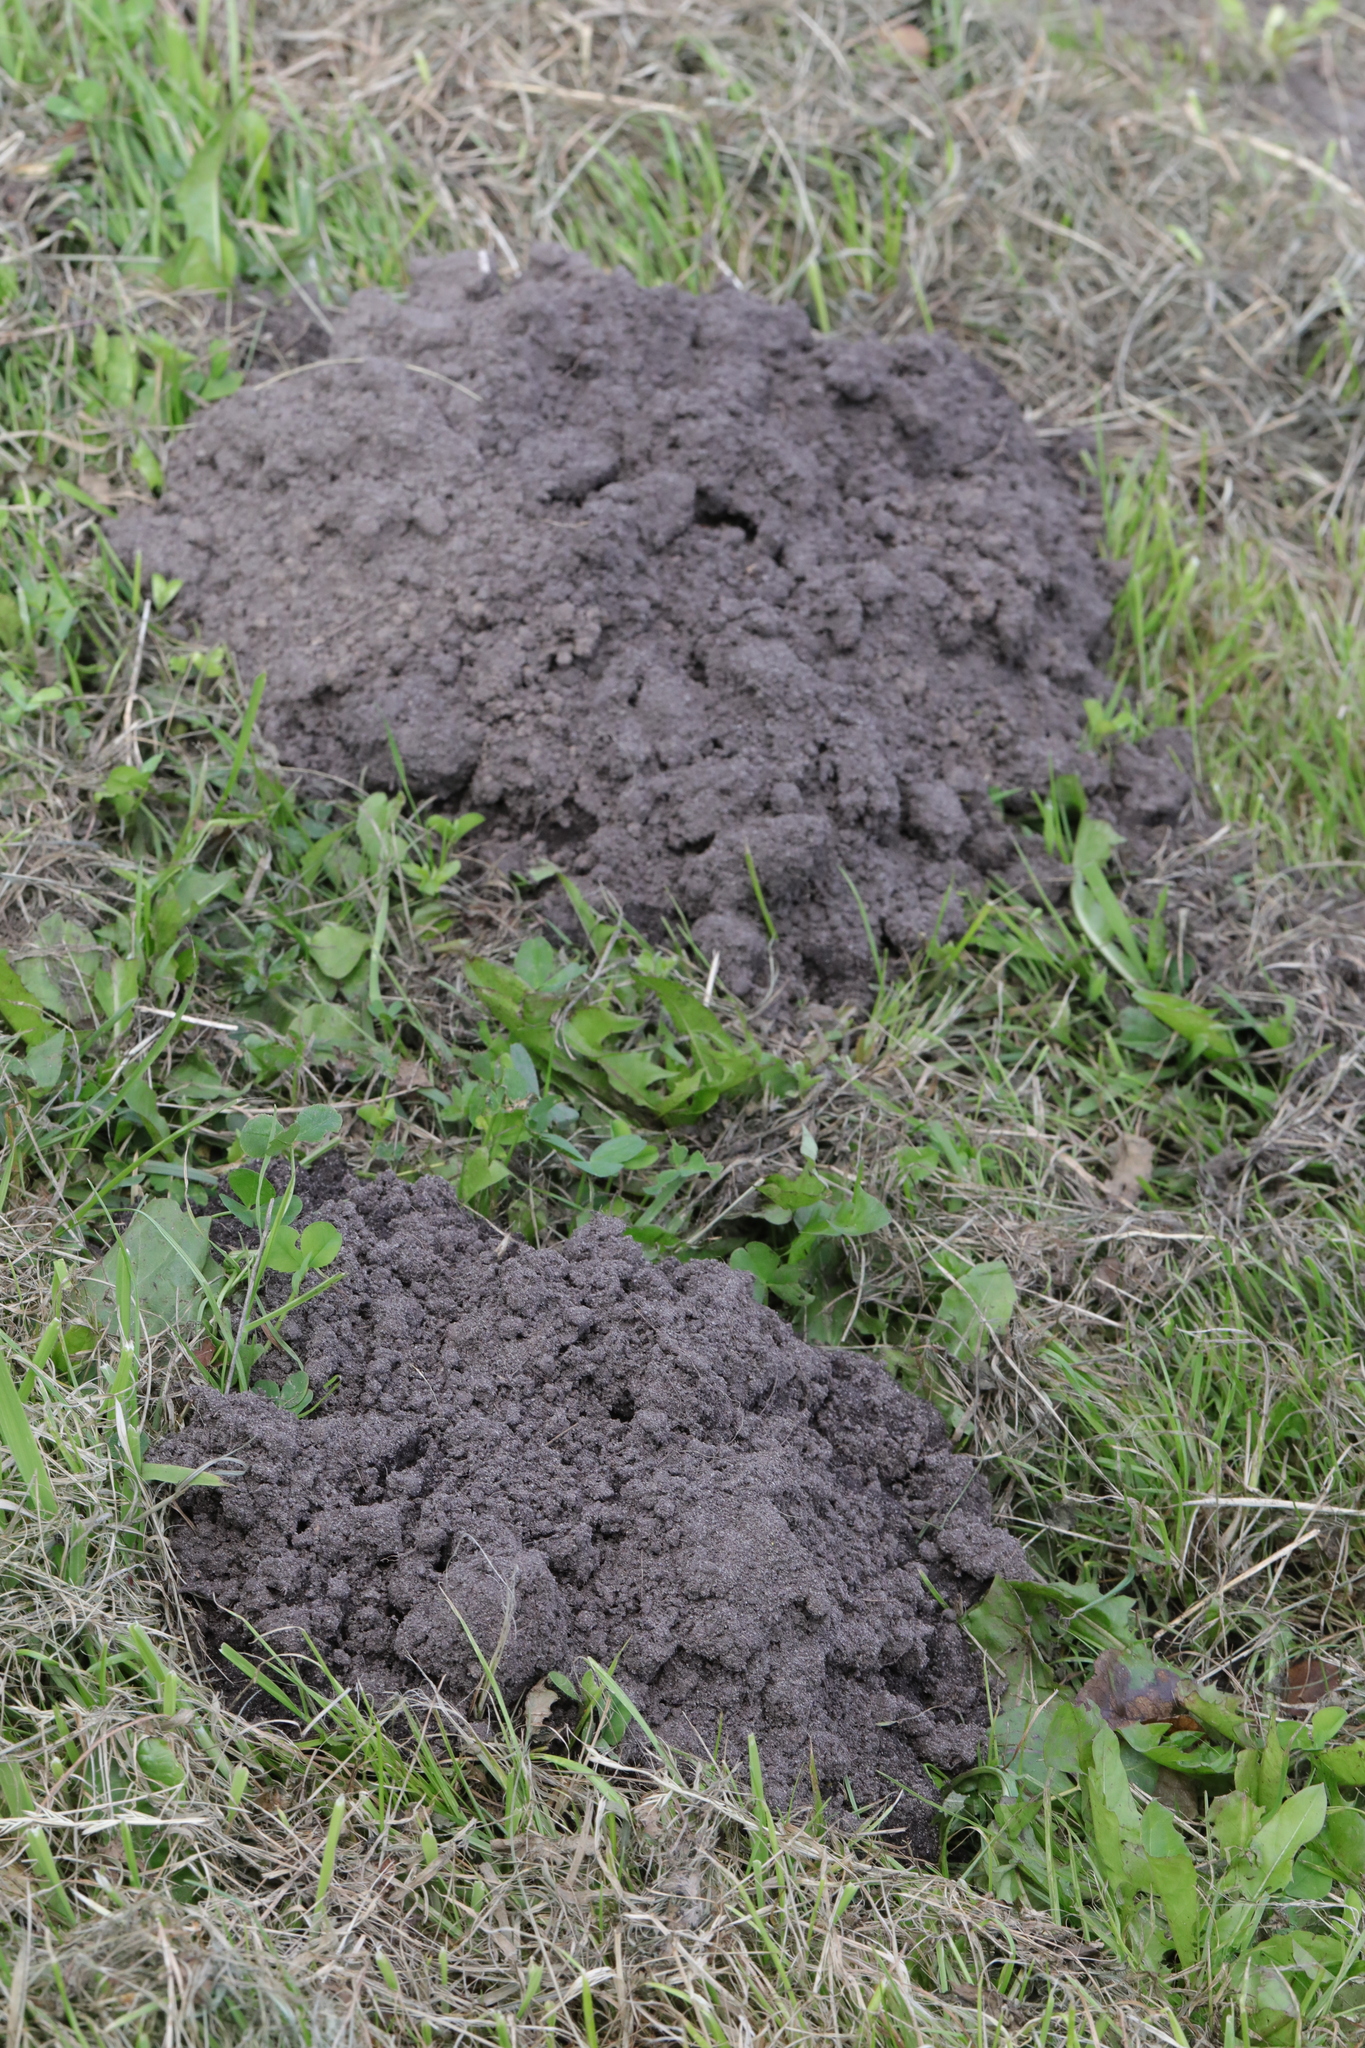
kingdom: Animalia
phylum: Chordata
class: Mammalia
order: Soricomorpha
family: Talpidae
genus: Talpa
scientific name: Talpa europaea
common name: European mole
